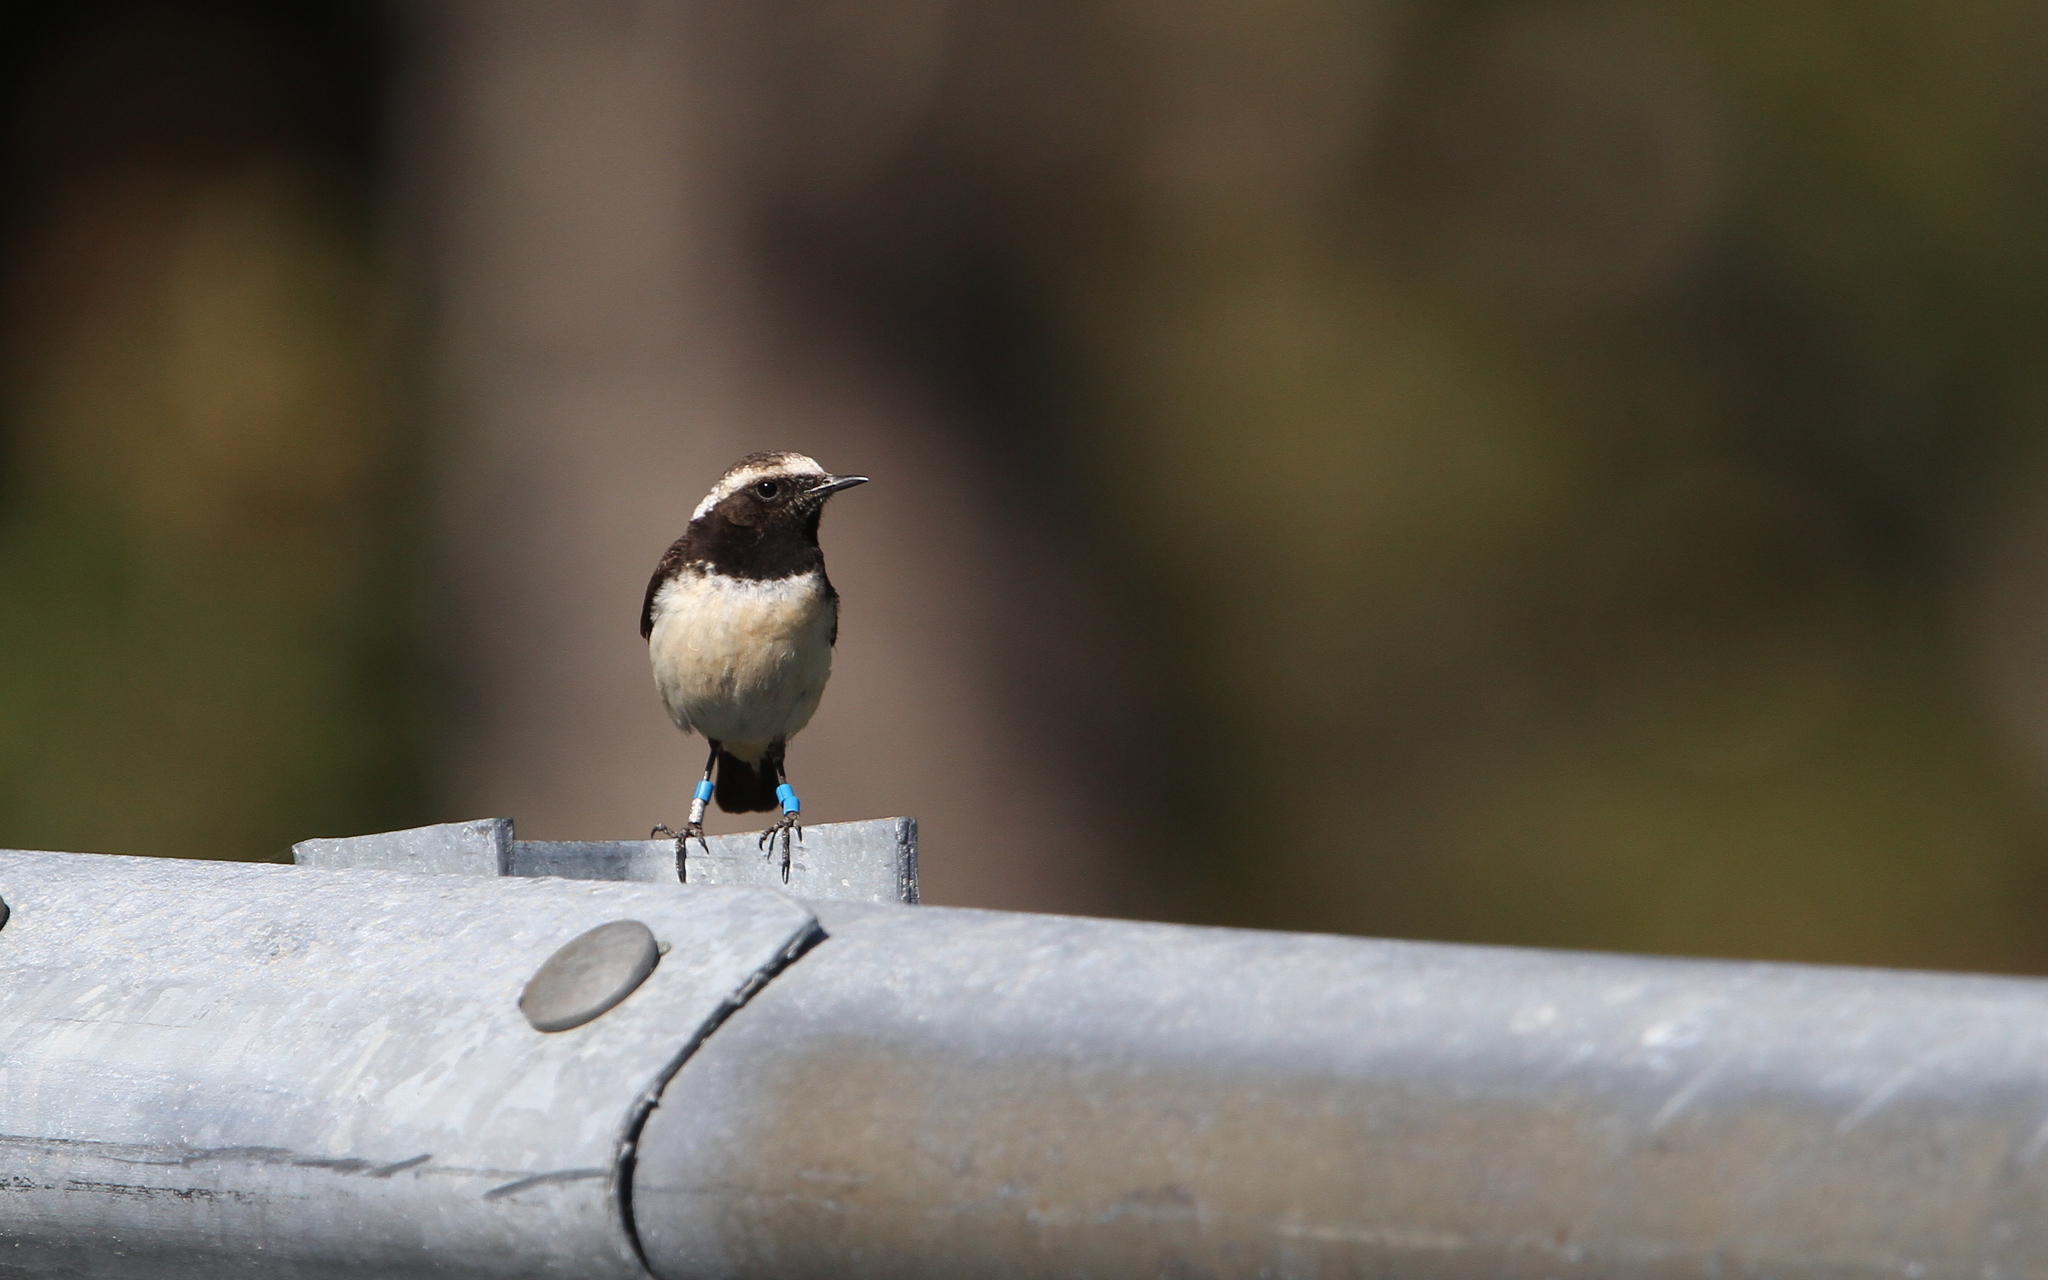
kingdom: Animalia
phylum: Chordata
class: Aves
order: Passeriformes
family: Muscicapidae
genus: Oenanthe
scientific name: Oenanthe cypriaca
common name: Cyprus wheatear
